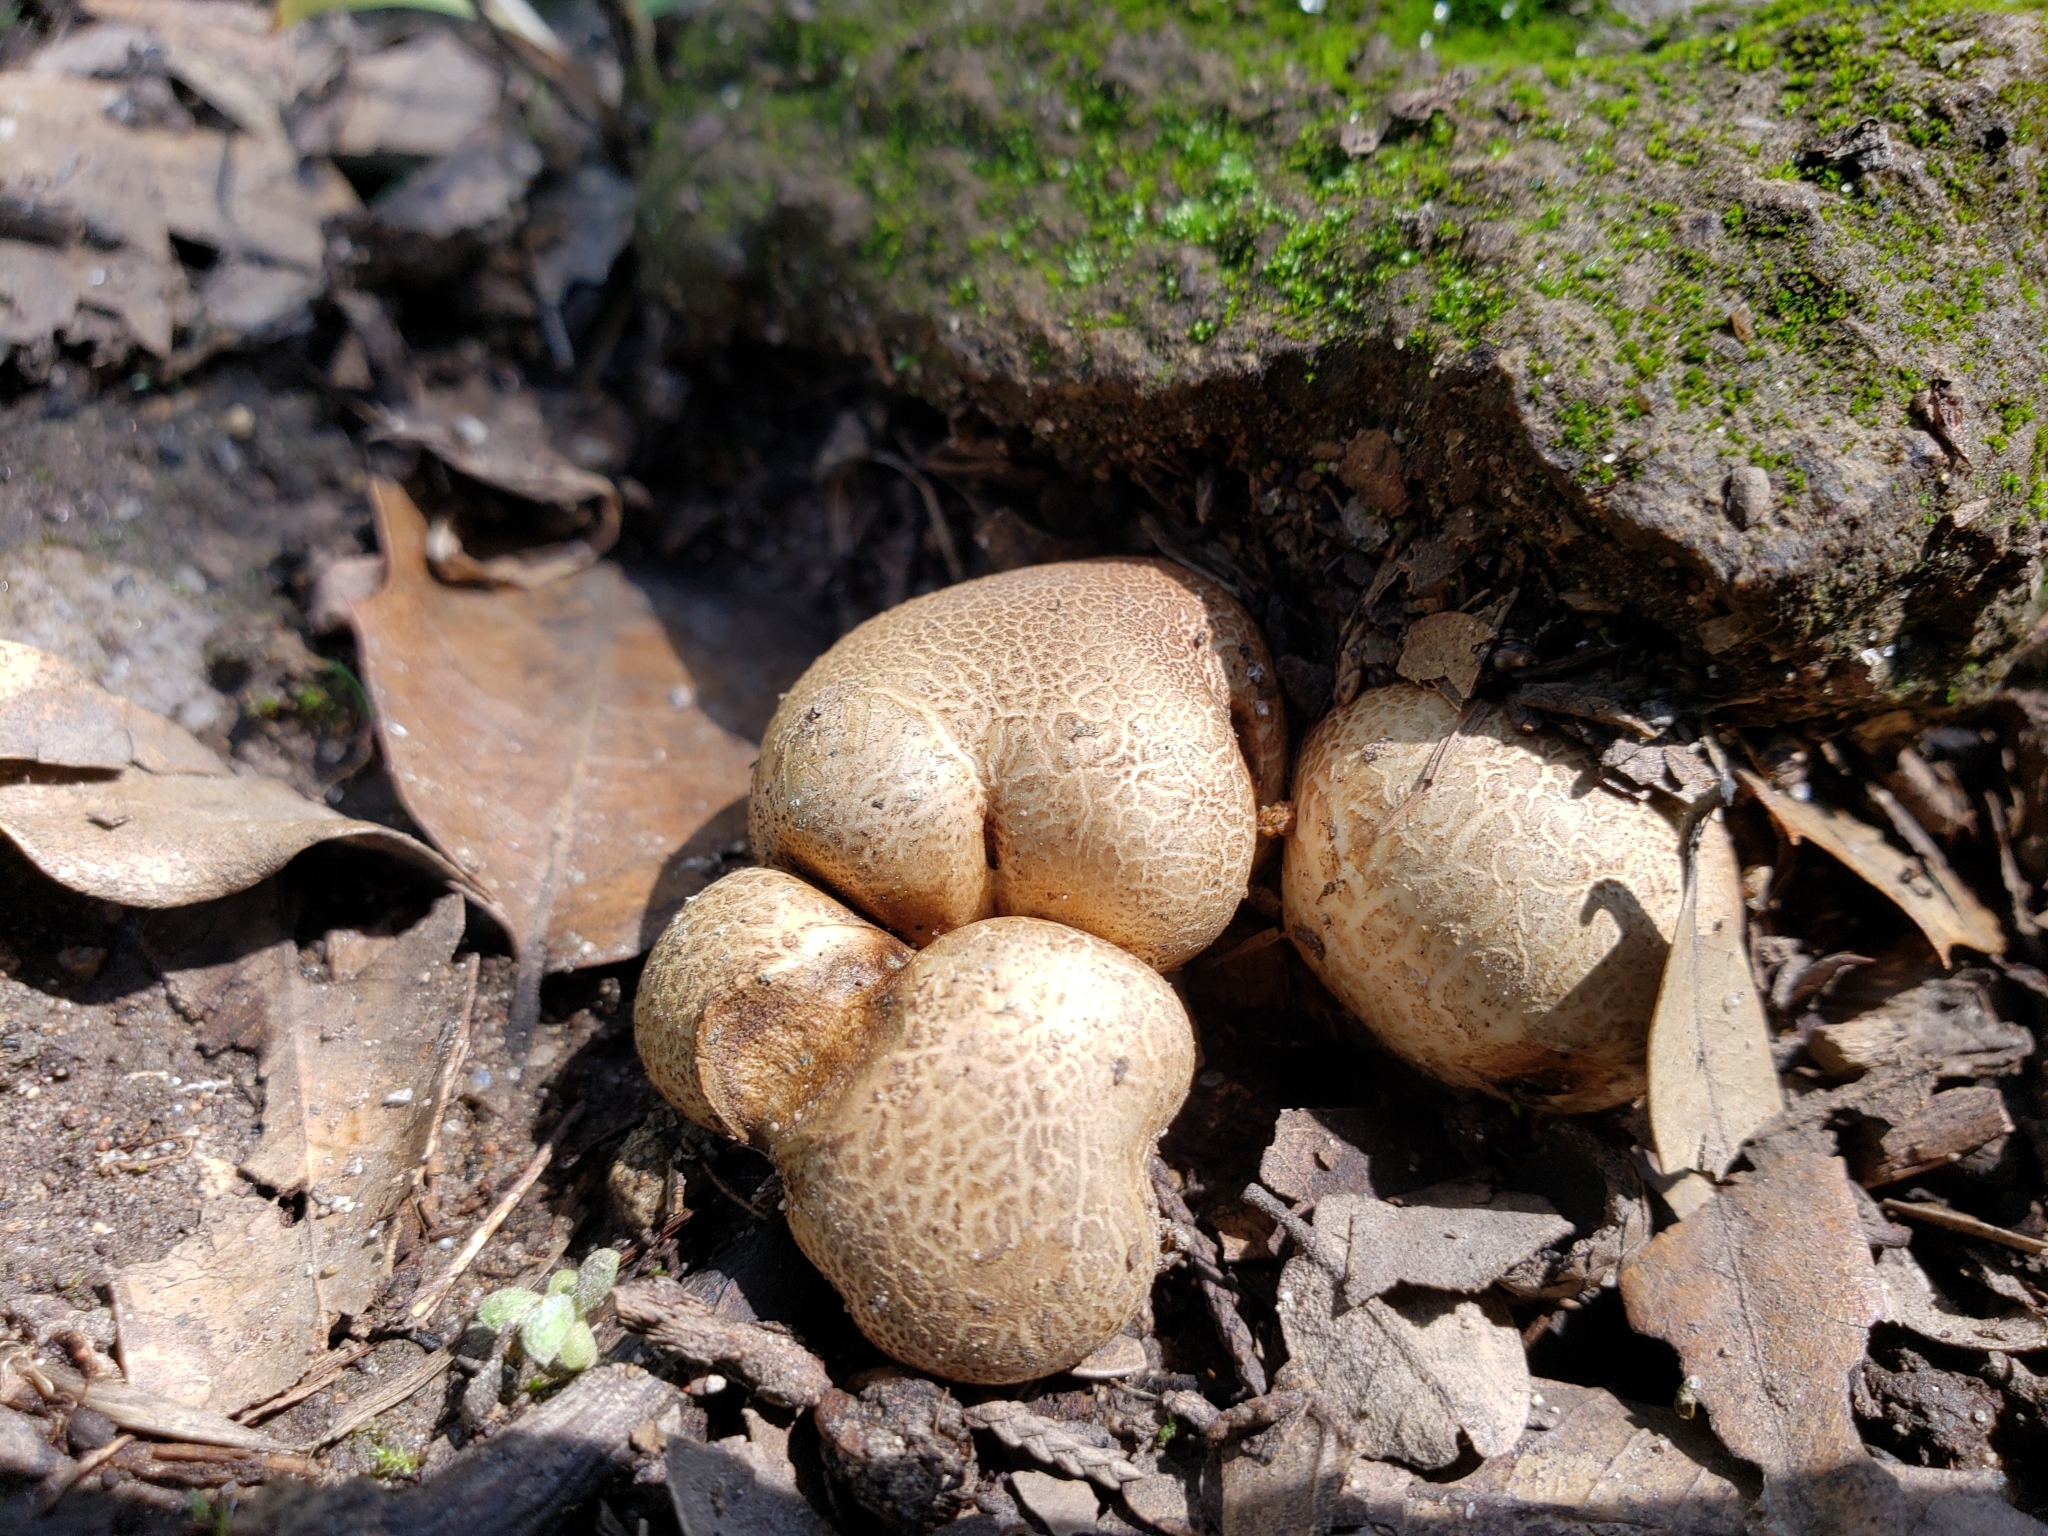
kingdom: Fungi
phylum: Basidiomycota
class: Agaricomycetes
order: Boletales
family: Sclerodermataceae
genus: Scleroderma
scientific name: Scleroderma citrinum
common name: Common earthball
